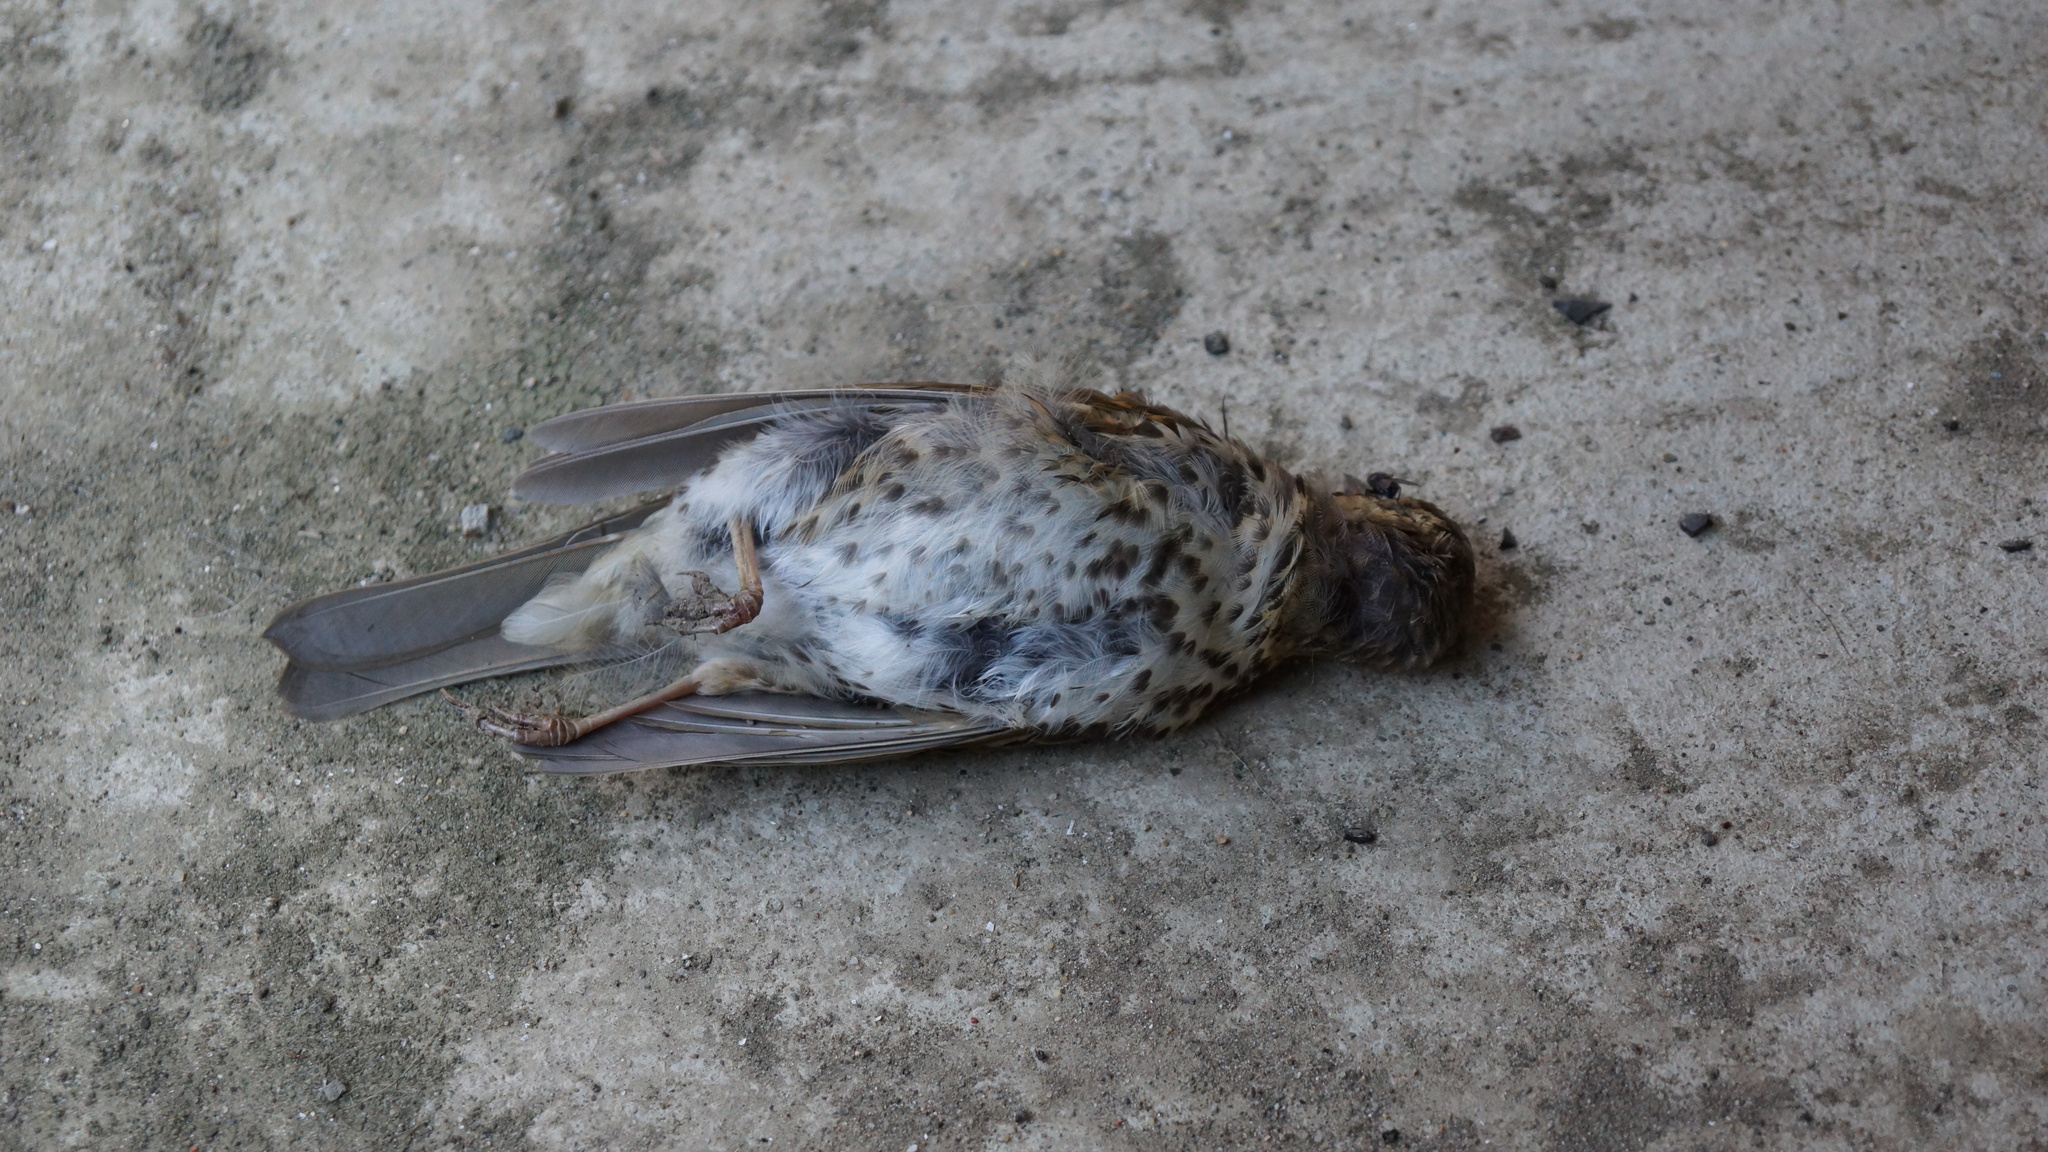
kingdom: Animalia
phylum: Chordata
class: Aves
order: Passeriformes
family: Turdidae
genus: Turdus
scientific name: Turdus philomelos
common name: Song thrush
